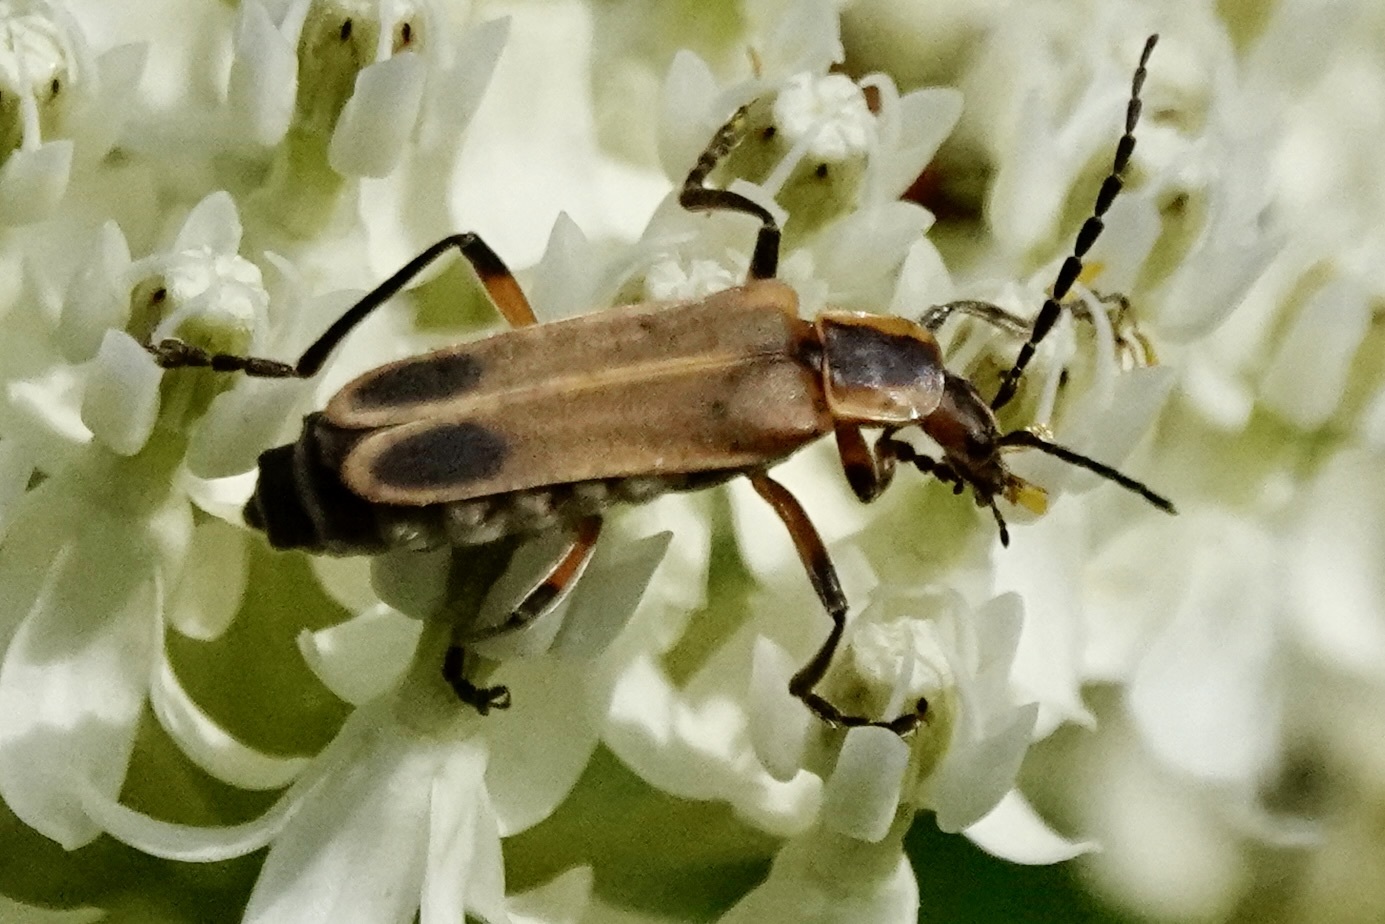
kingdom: Animalia
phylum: Arthropoda
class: Insecta
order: Coleoptera
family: Cantharidae
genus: Chauliognathus
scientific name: Chauliognathus marginatus
